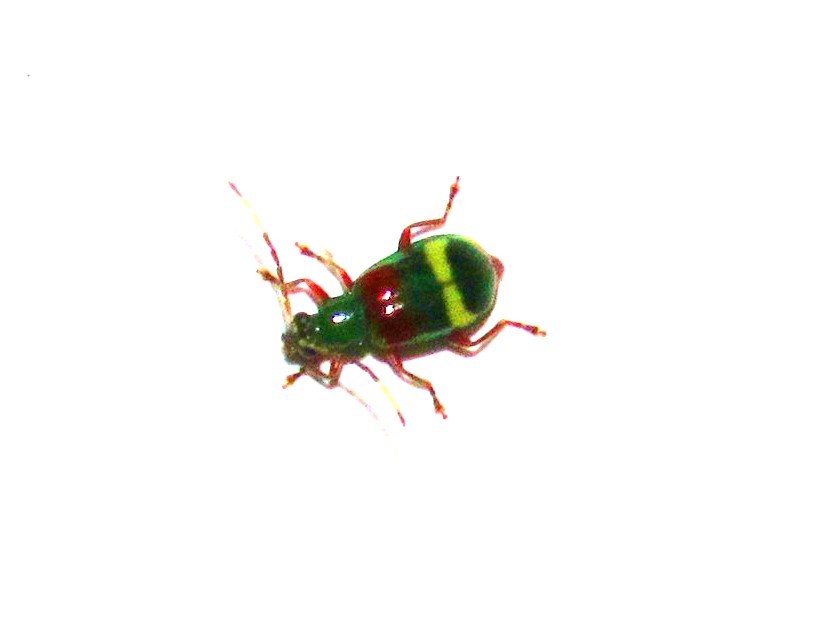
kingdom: Animalia
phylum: Arthropoda
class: Insecta
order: Coleoptera
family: Chrysomelidae
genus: Charidotella
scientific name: Charidotella amoenula
